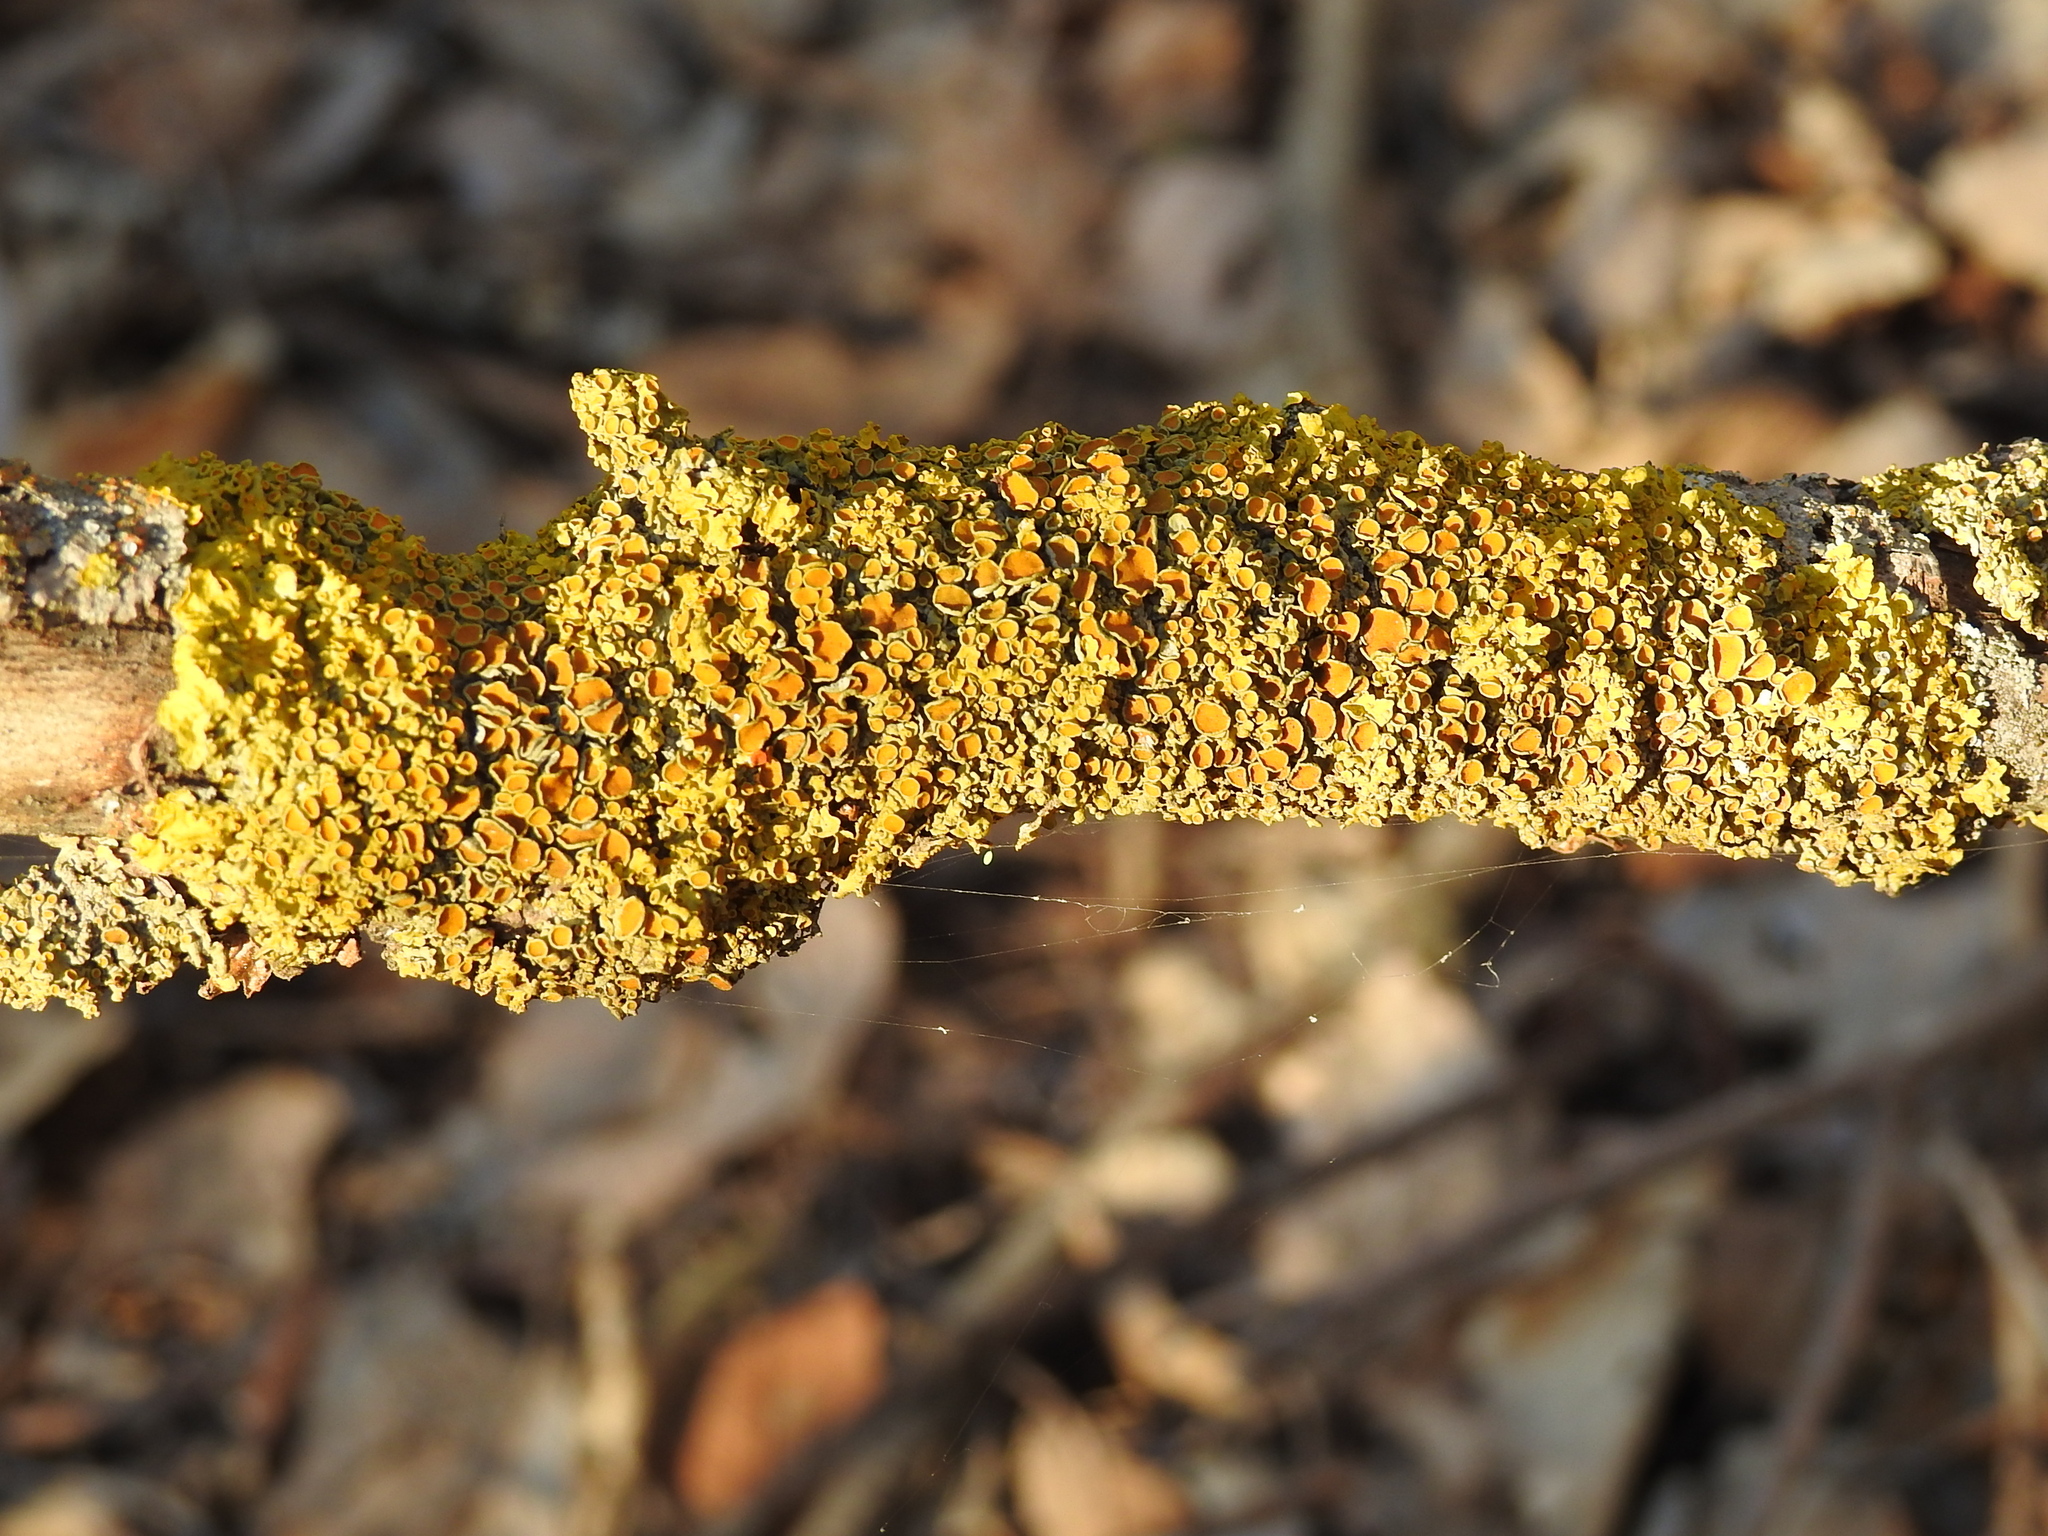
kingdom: Fungi
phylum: Ascomycota
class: Lecanoromycetes
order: Teloschistales
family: Teloschistaceae
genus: Xanthoria
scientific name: Xanthoria parietina
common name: Common orange lichen
